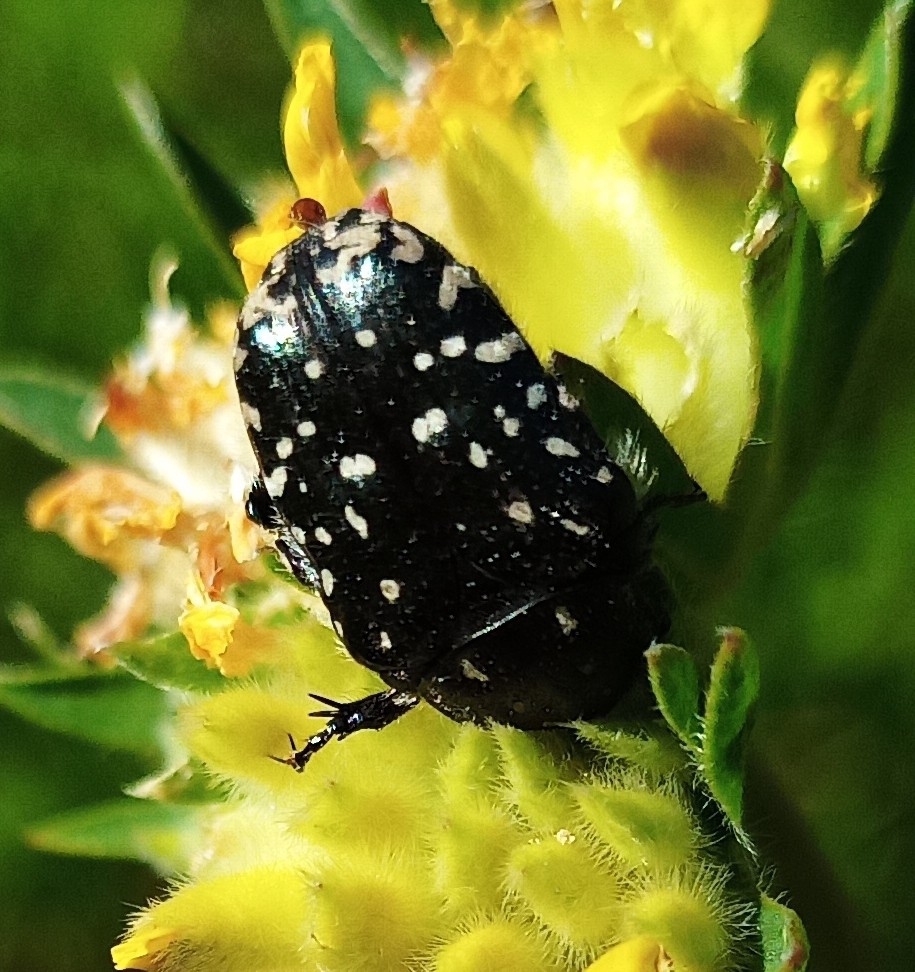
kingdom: Animalia
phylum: Arthropoda
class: Insecta
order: Coleoptera
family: Scarabaeidae
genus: Oxythyrea
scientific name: Oxythyrea funesta
